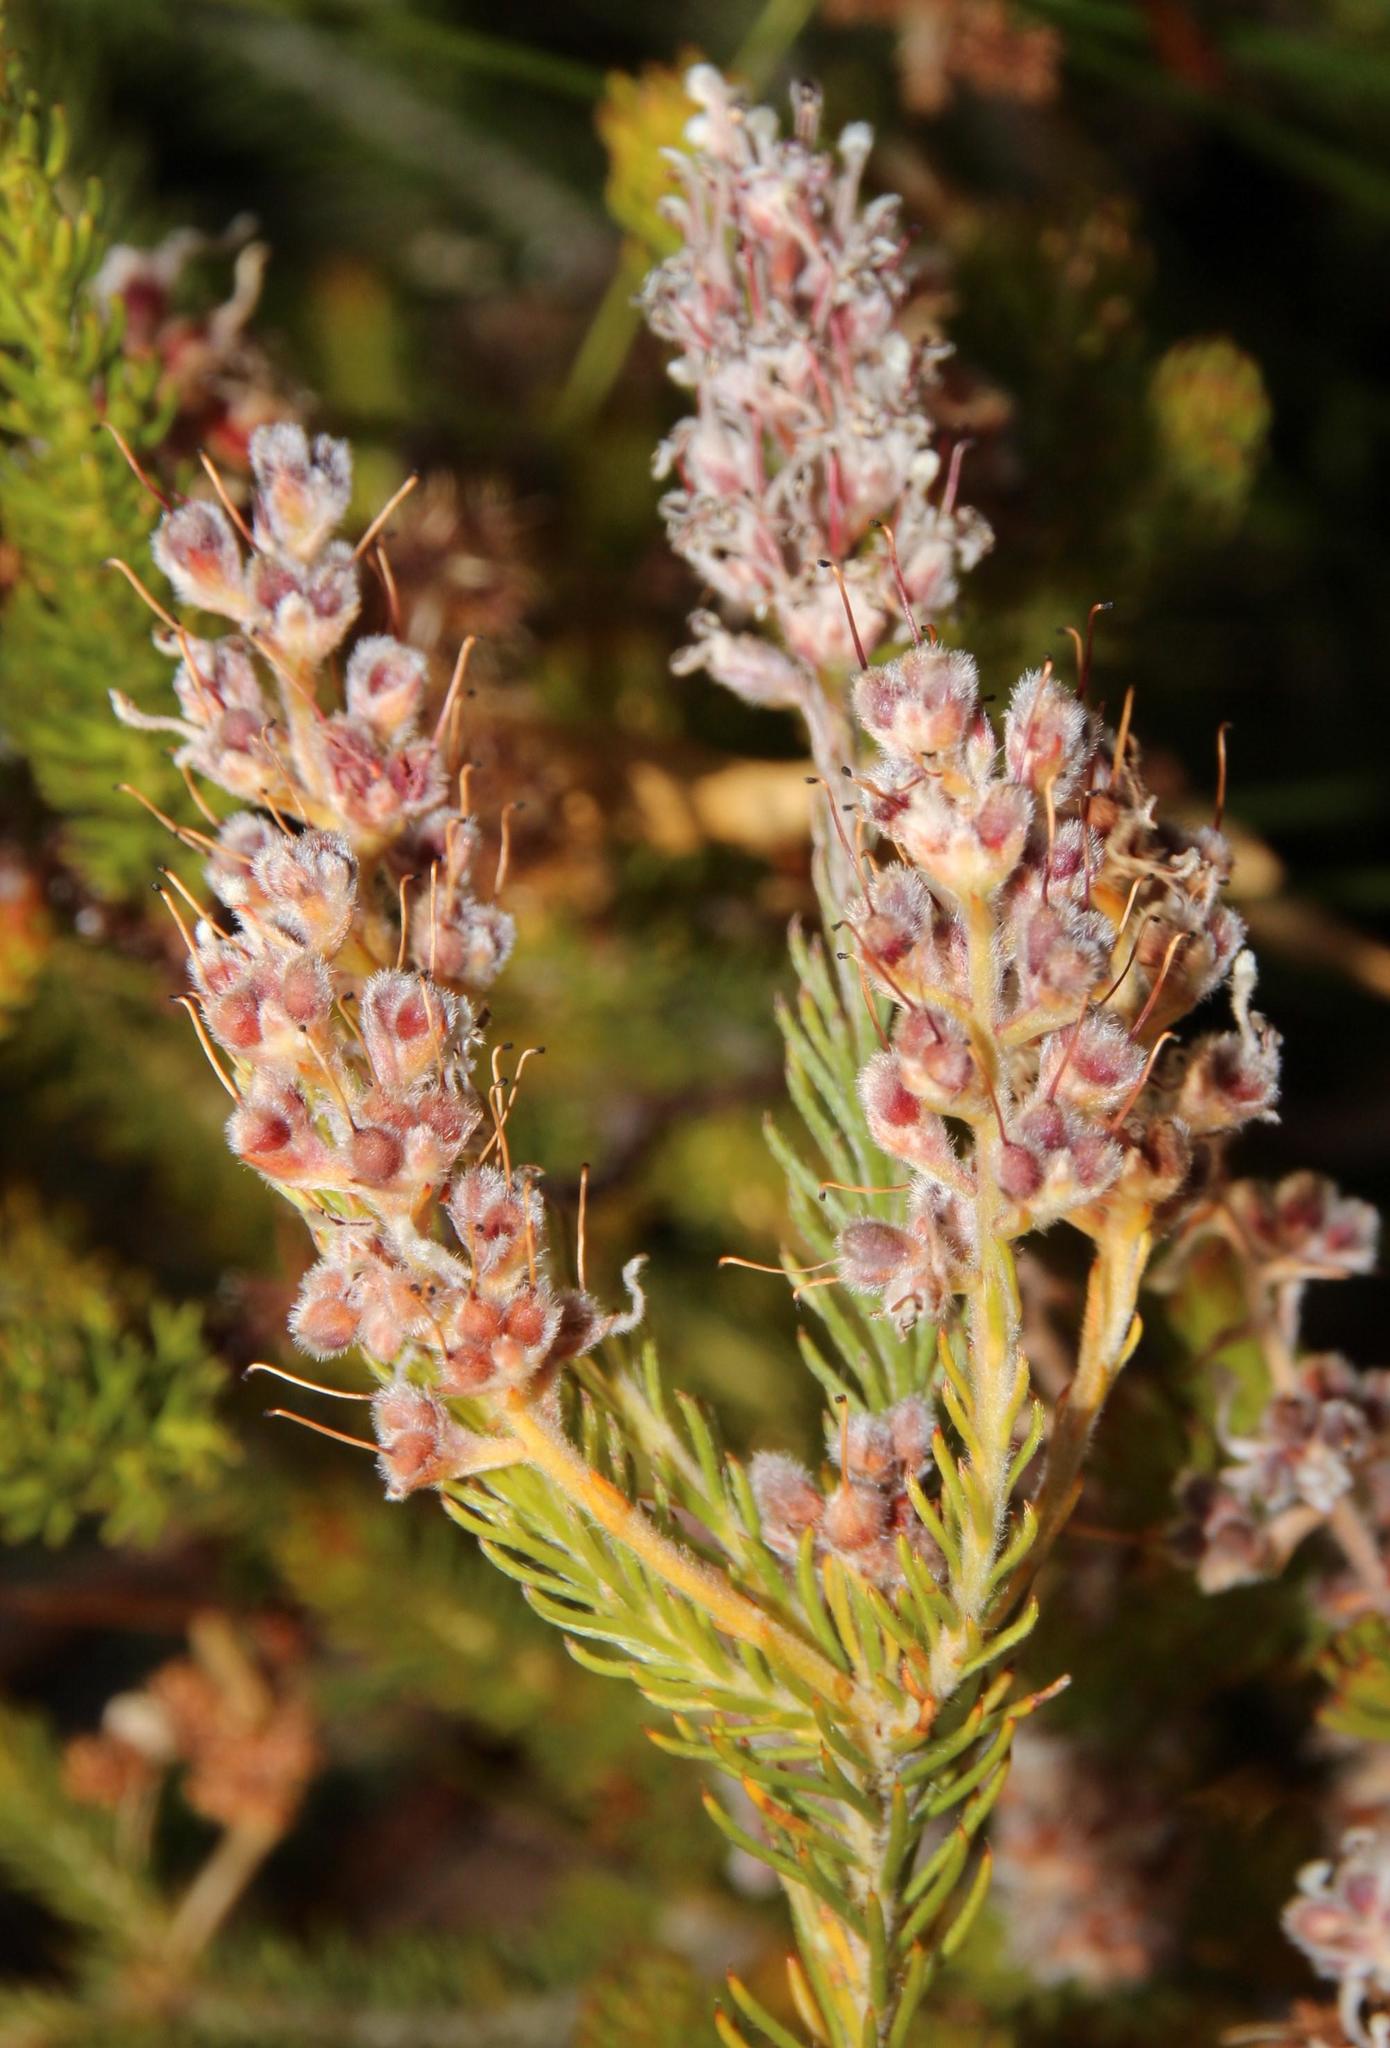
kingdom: Plantae
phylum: Tracheophyta
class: Magnoliopsida
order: Proteales
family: Proteaceae
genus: Spatalla
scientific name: Spatalla incurva
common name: Swan-head spoon
